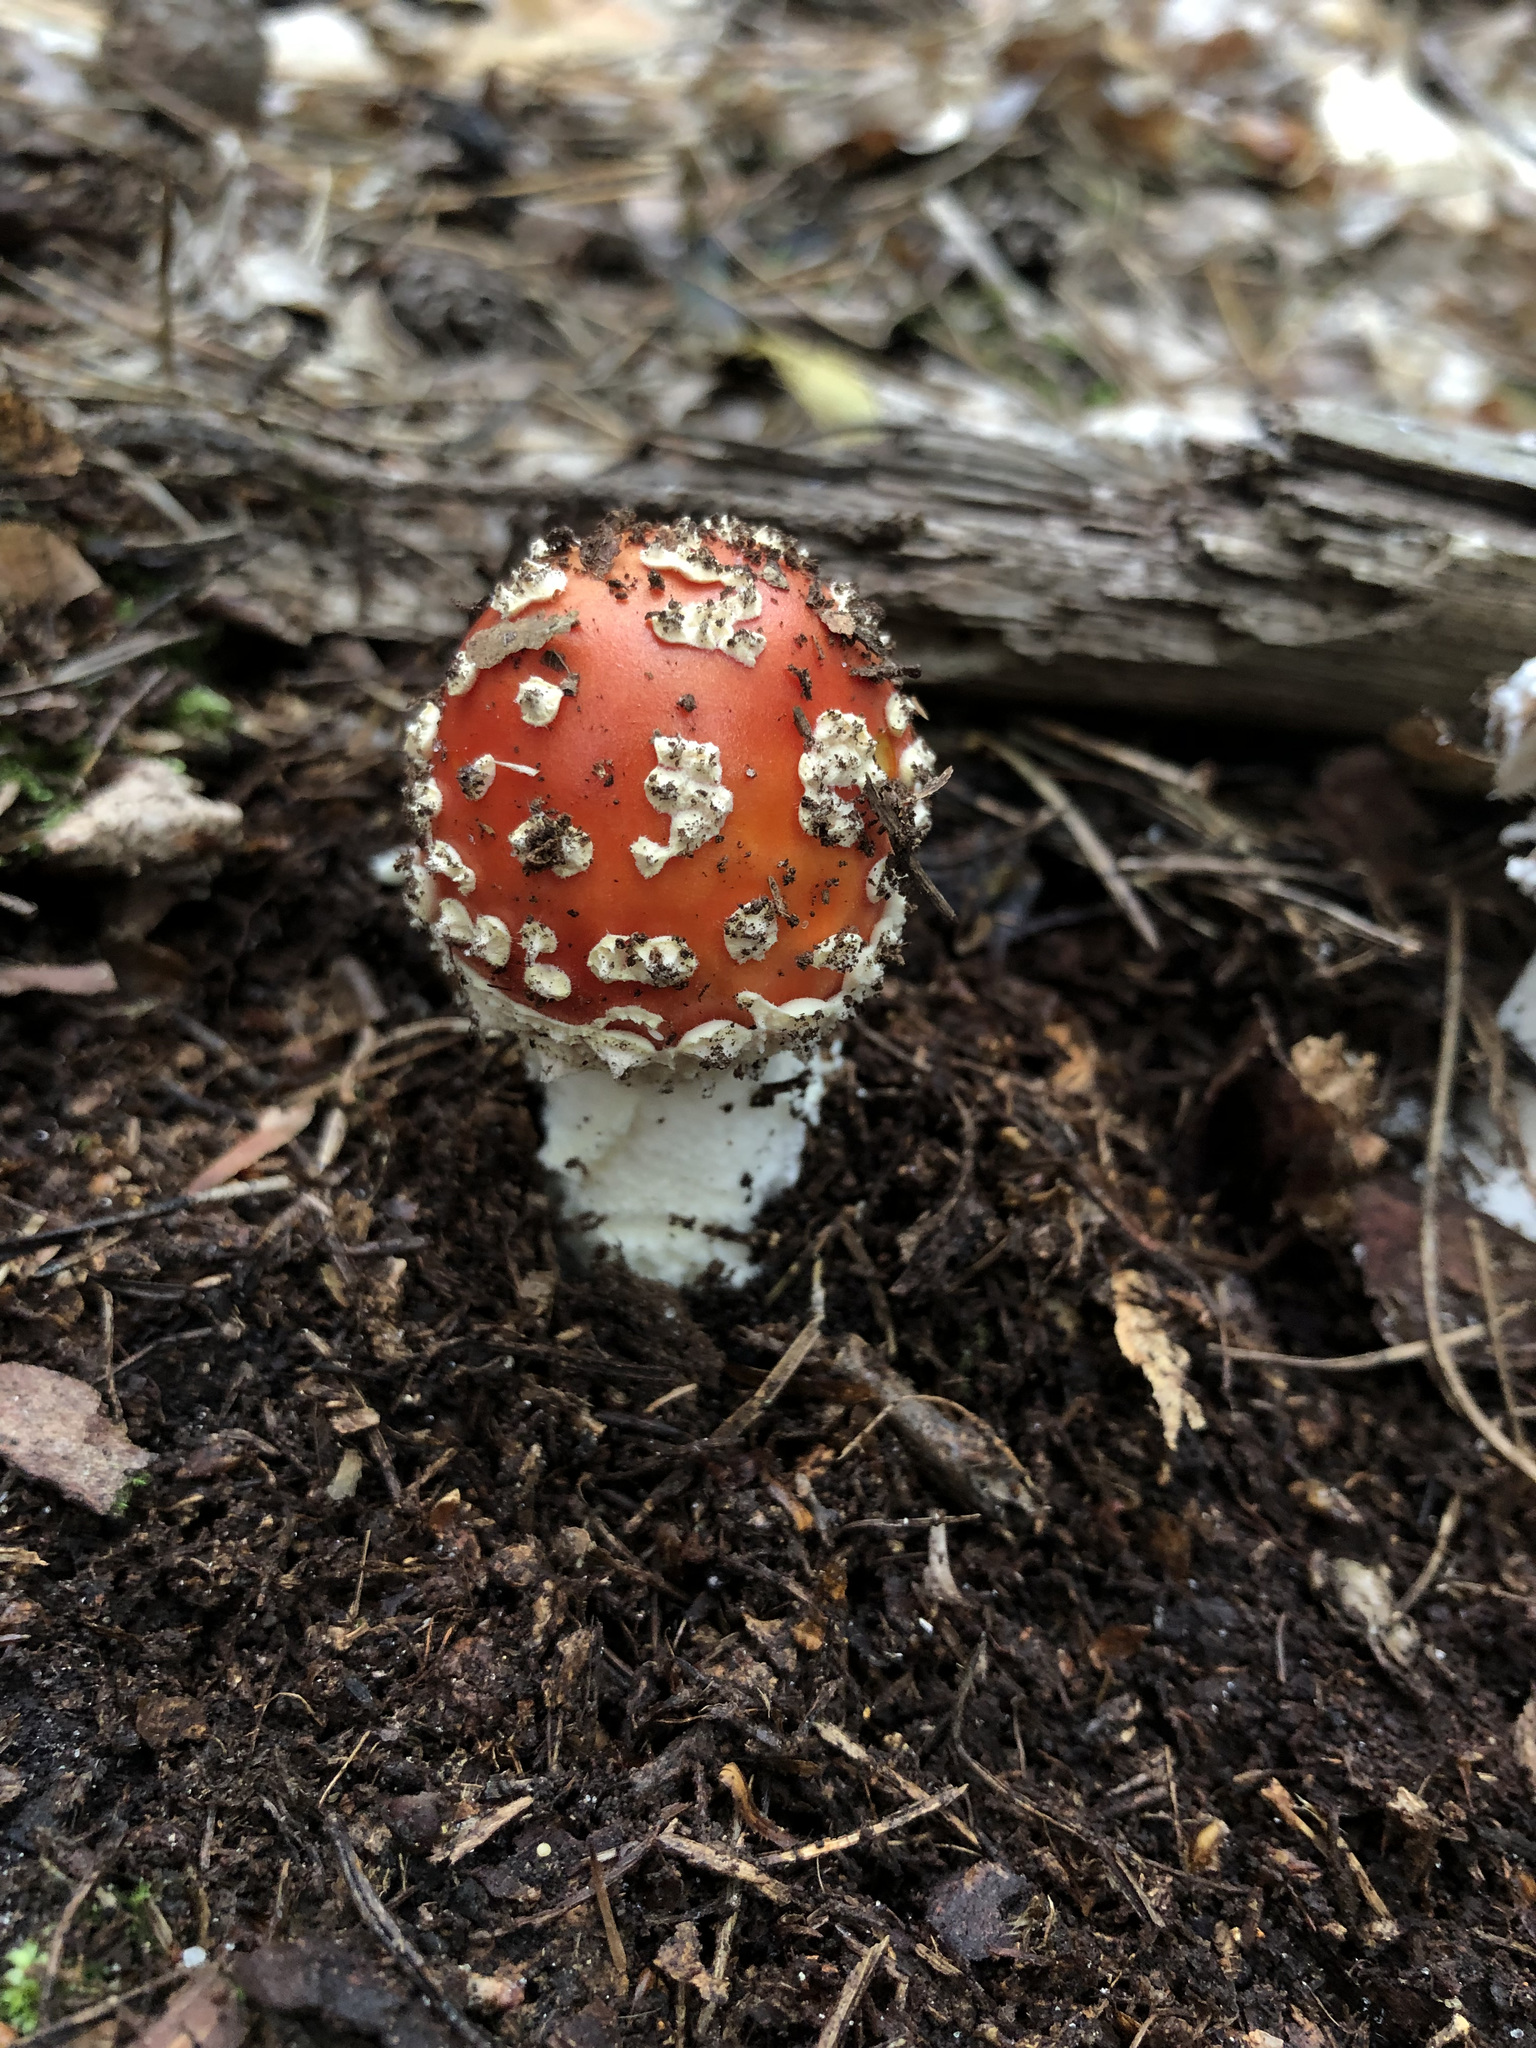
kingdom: Fungi
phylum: Basidiomycota
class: Agaricomycetes
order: Agaricales
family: Amanitaceae
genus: Amanita
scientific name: Amanita muscaria
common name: Fly agaric
